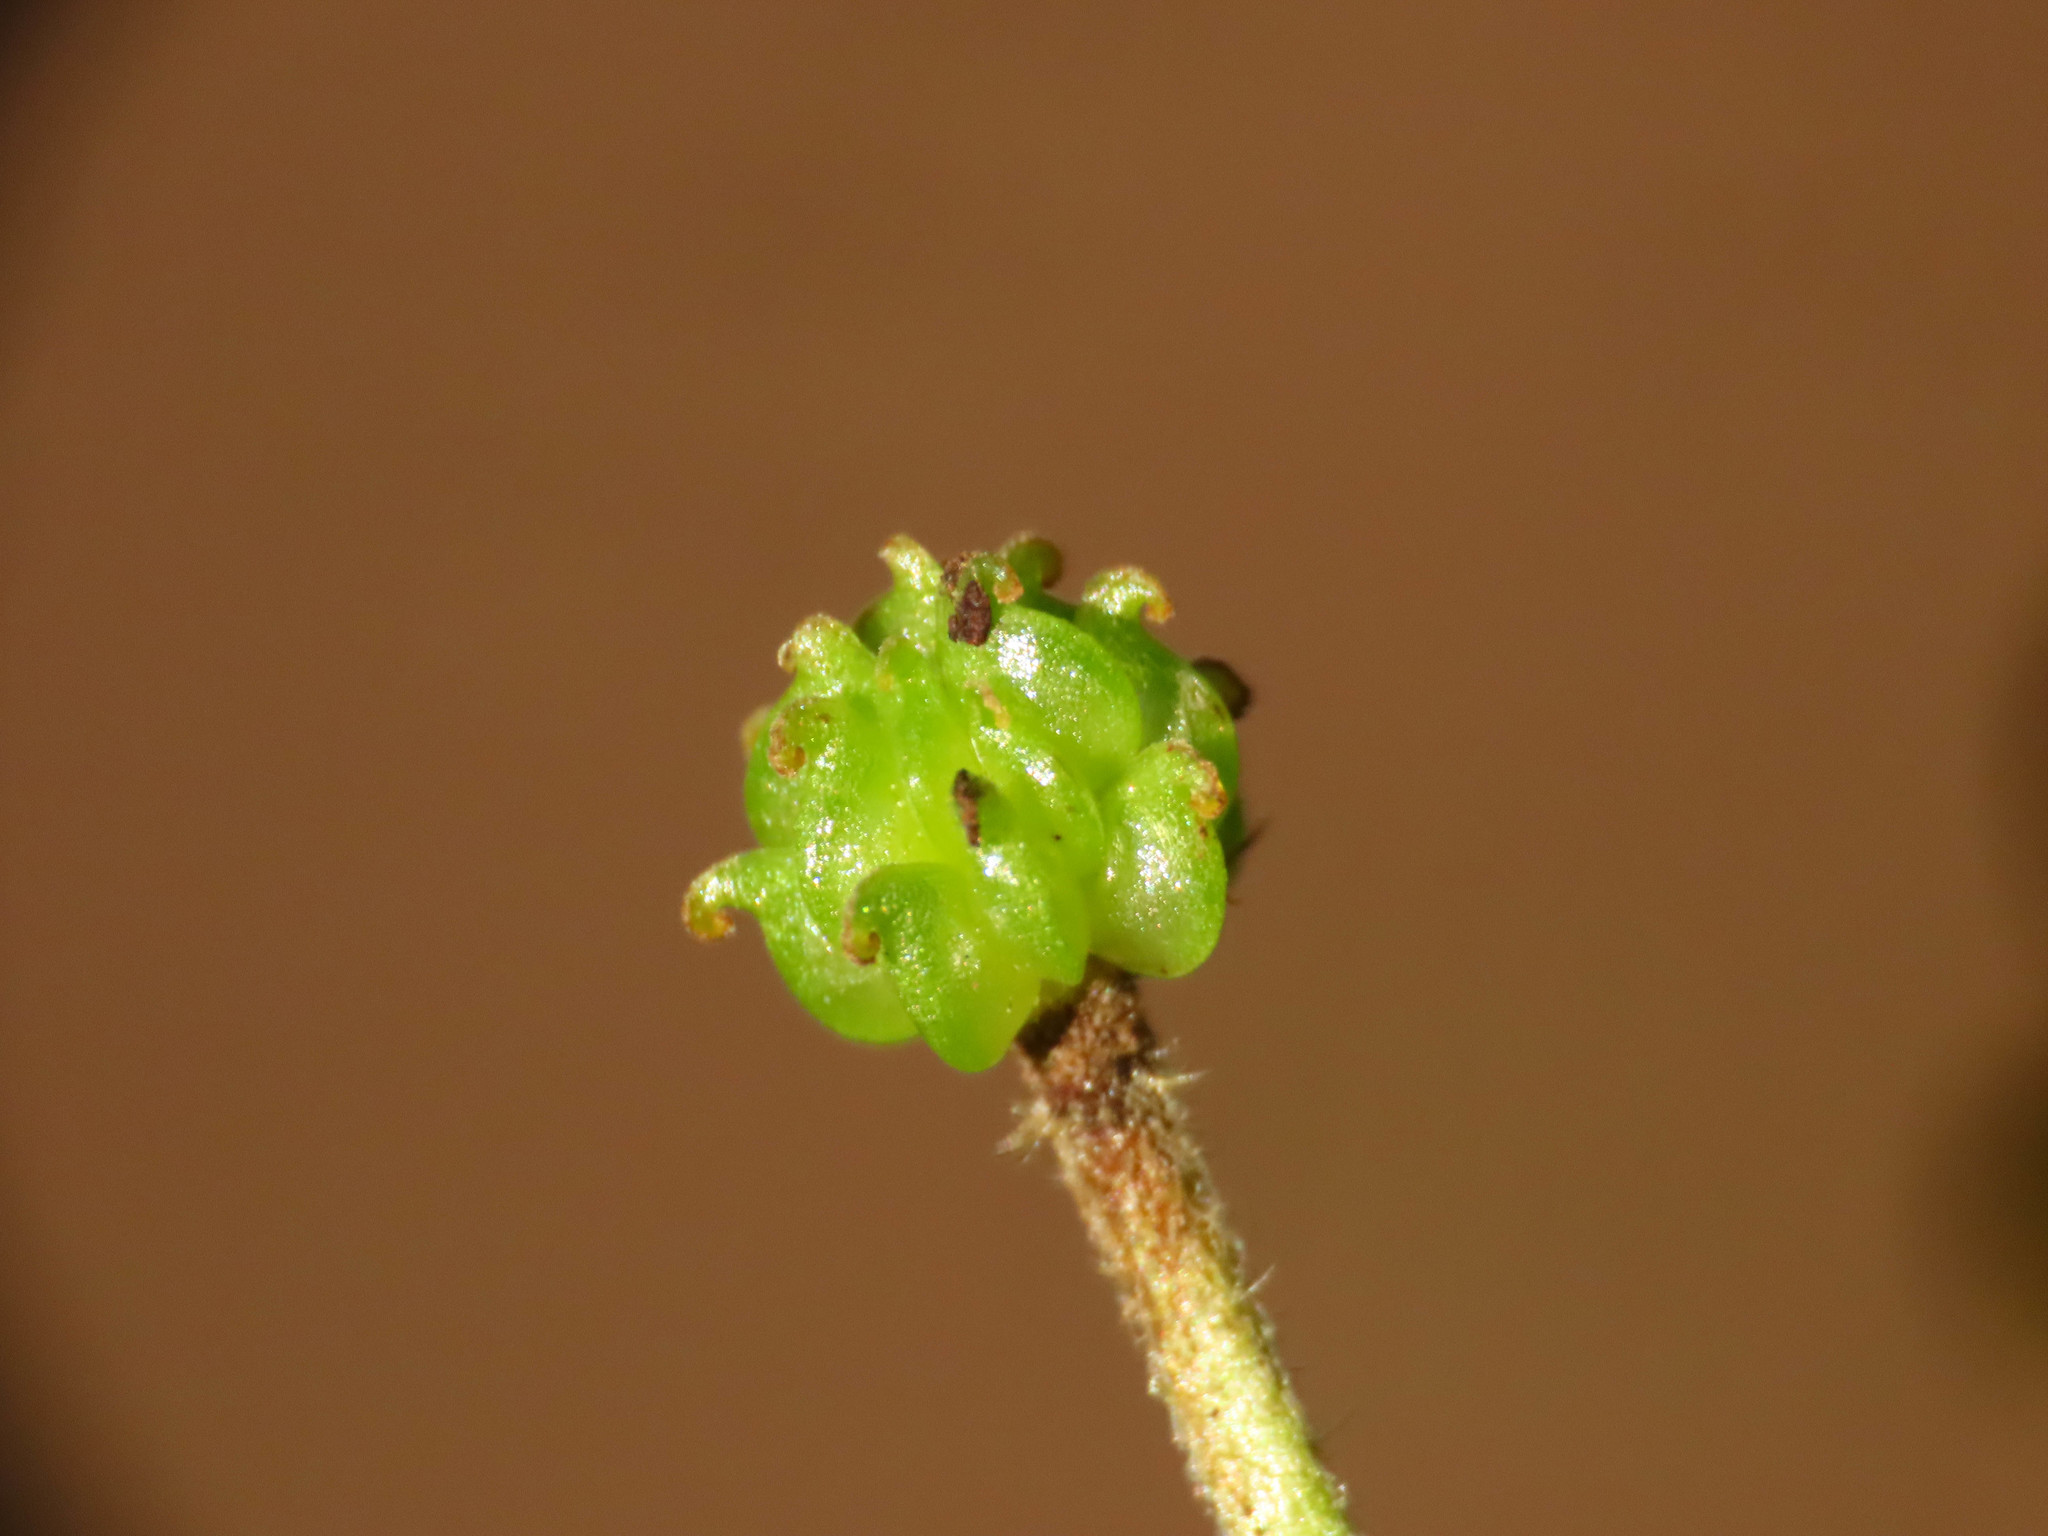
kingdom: Plantae
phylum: Tracheophyta
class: Magnoliopsida
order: Ranunculales
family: Ranunculaceae
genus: Ranunculus
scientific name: Ranunculus lanuginosus
